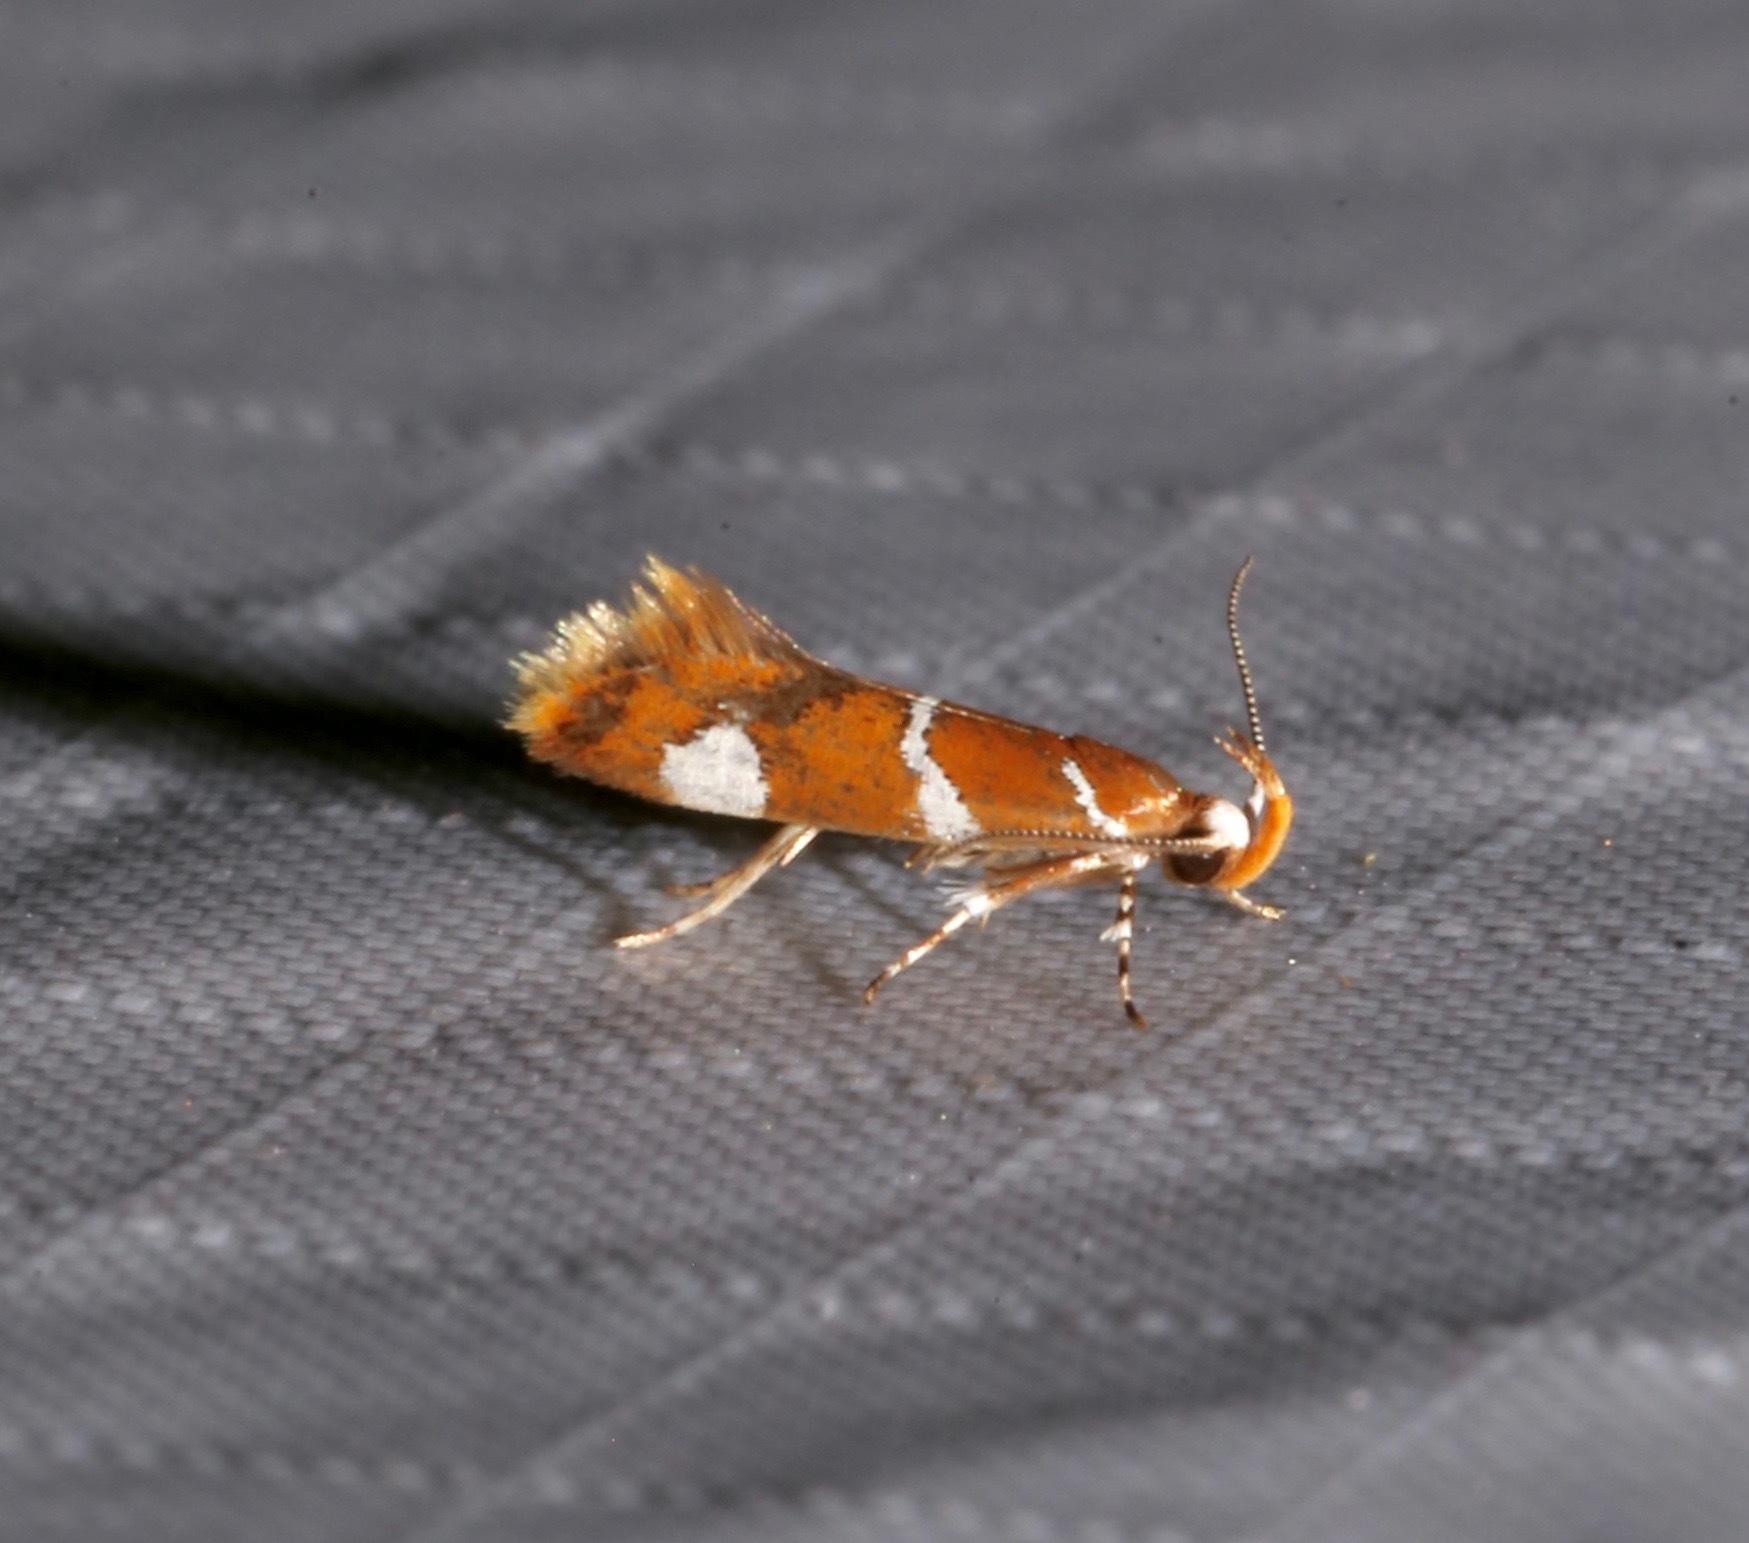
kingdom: Animalia
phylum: Arthropoda
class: Insecta
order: Lepidoptera
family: Oecophoridae
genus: Promalactis
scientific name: Promalactis suzukiella
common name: Moth
